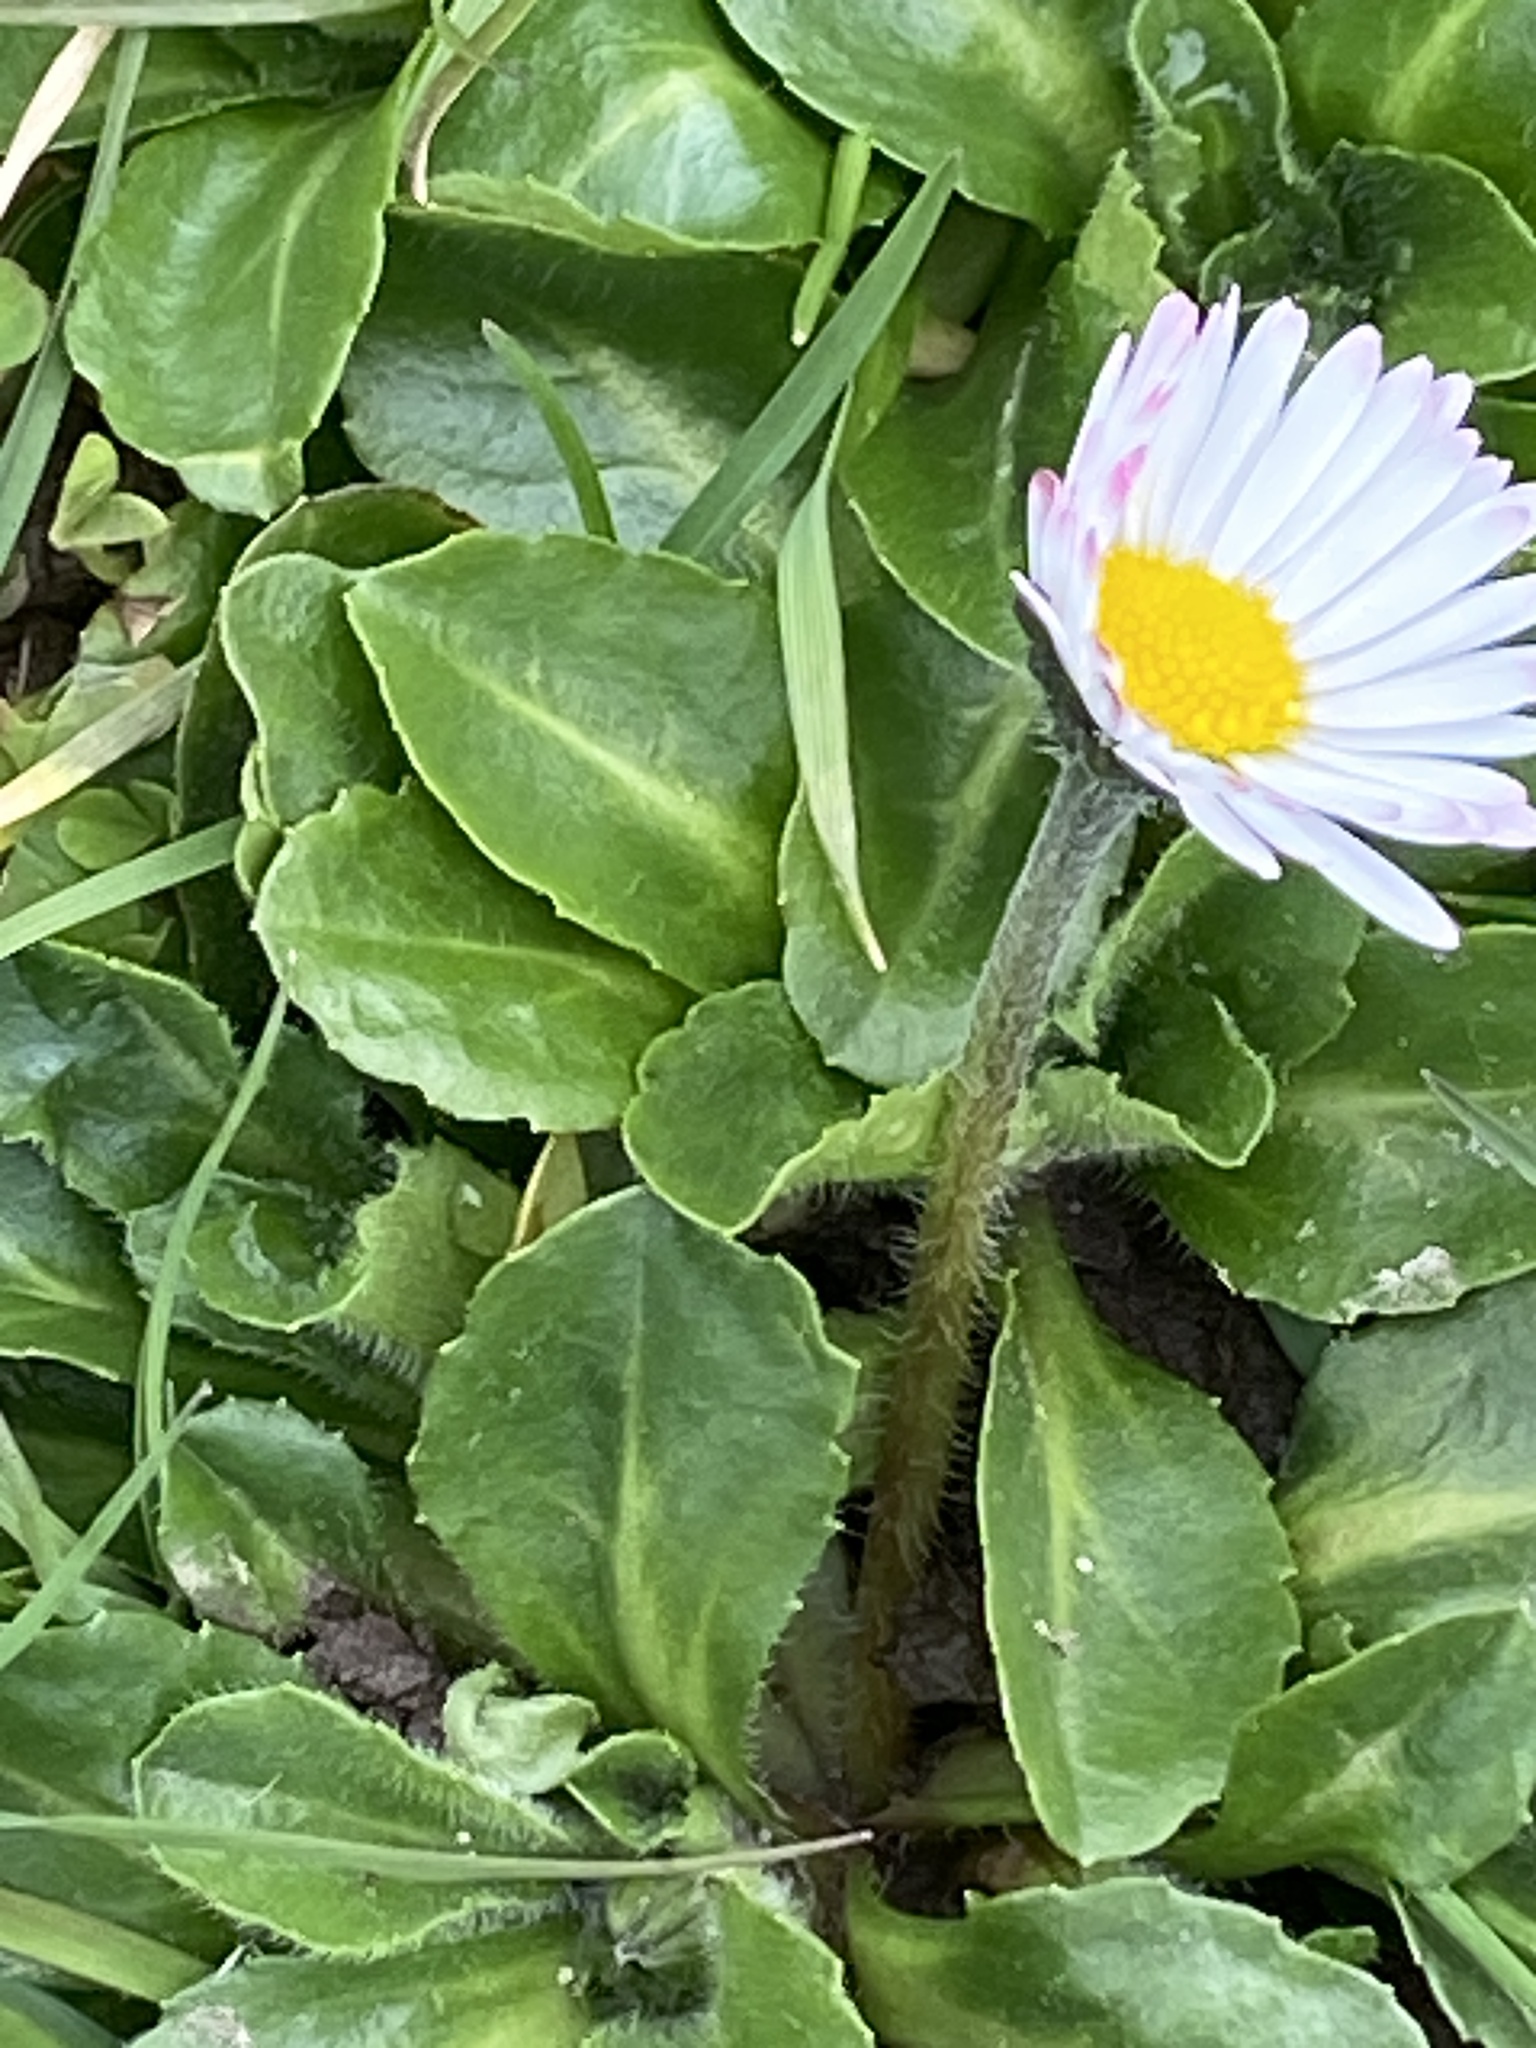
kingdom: Plantae
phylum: Tracheophyta
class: Magnoliopsida
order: Asterales
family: Asteraceae
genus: Bellis
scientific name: Bellis perennis
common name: Lawndaisy
